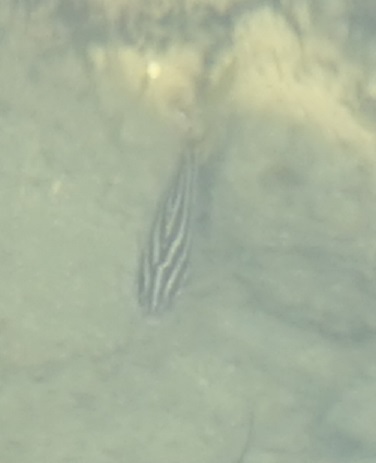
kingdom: Animalia
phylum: Chordata
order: Perciformes
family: Kyphosidae
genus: Microcanthus
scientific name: Microcanthus joyceae
